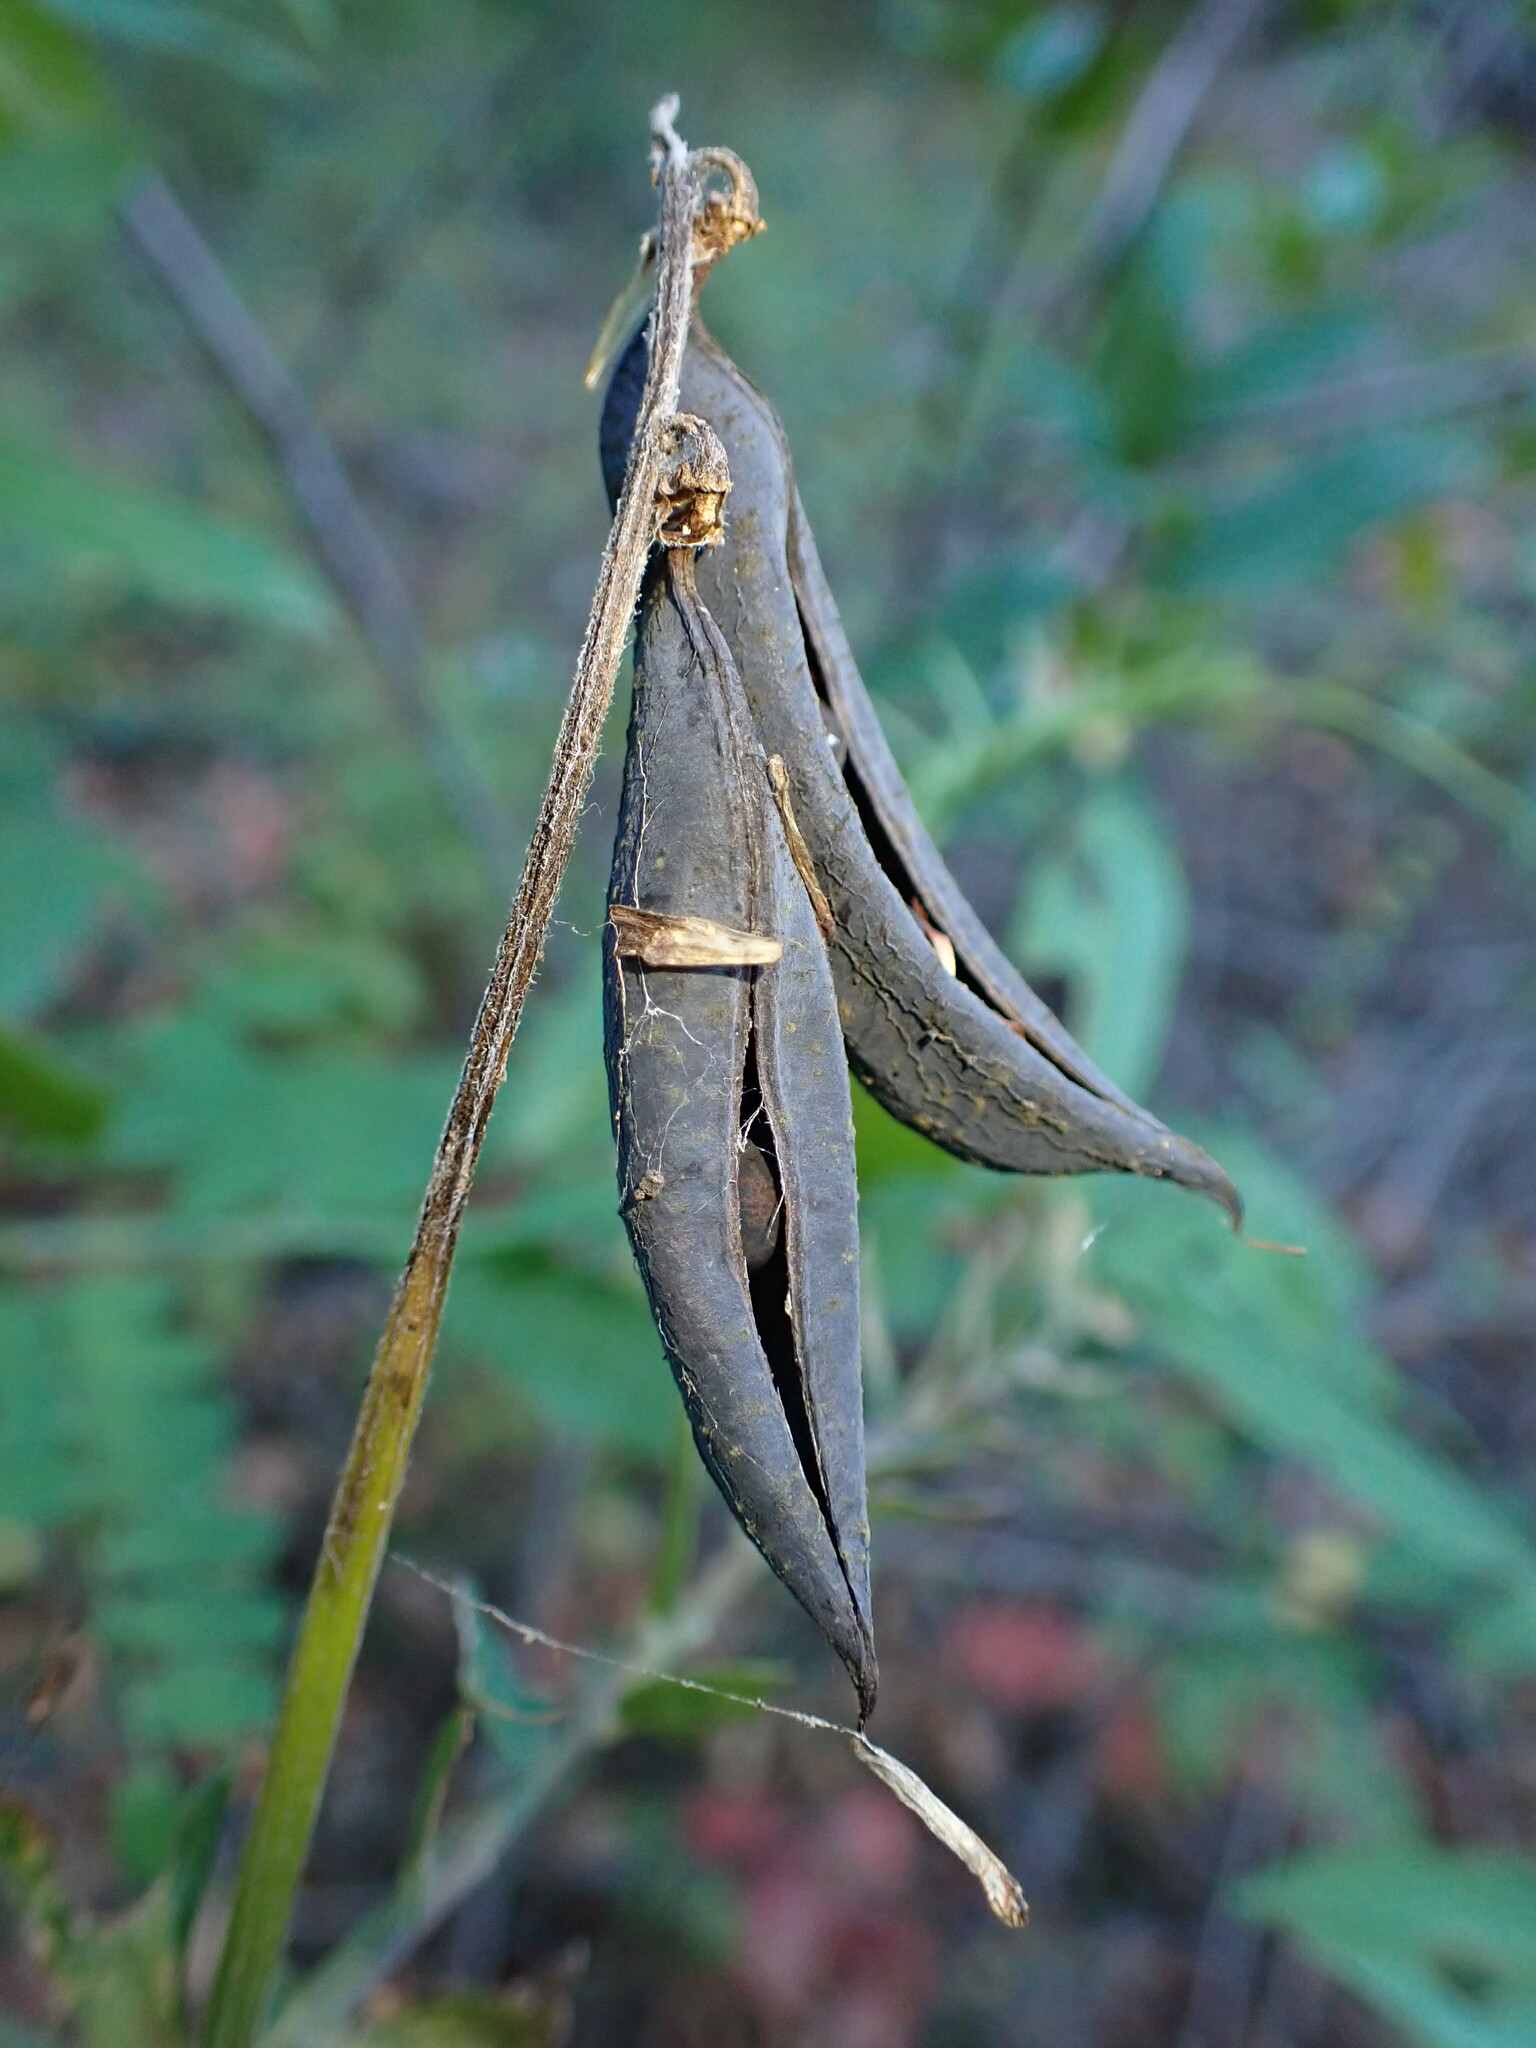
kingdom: Plantae
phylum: Tracheophyta
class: Magnoliopsida
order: Fabales
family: Fabaceae
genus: Vicia
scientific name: Vicia
